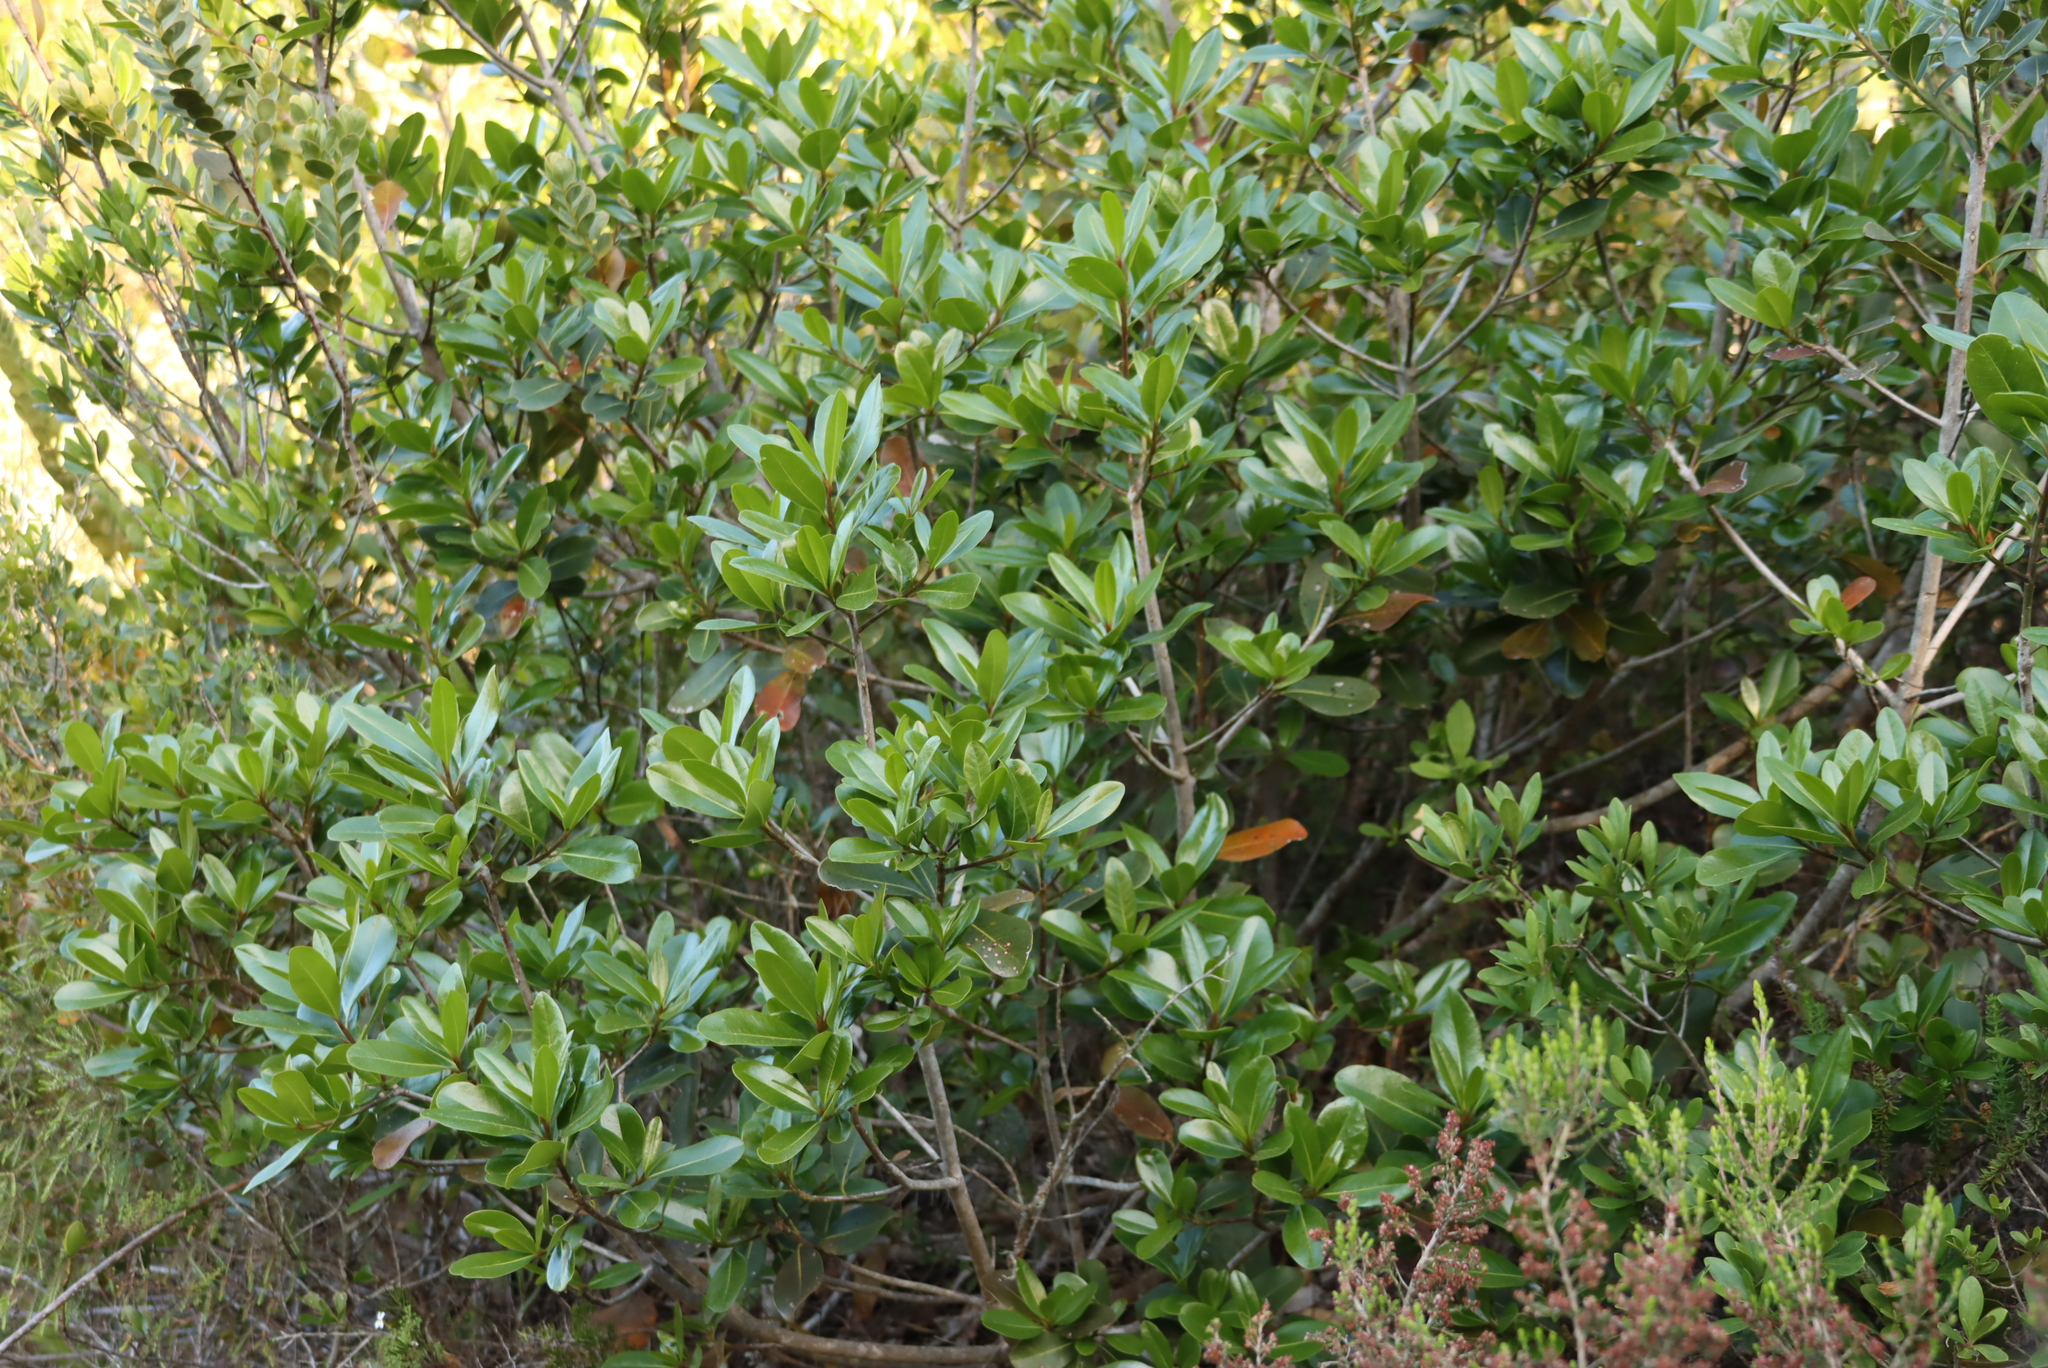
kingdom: Plantae
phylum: Tracheophyta
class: Magnoliopsida
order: Ericales
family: Sapotaceae
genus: Sideroxylon
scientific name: Sideroxylon inerme
